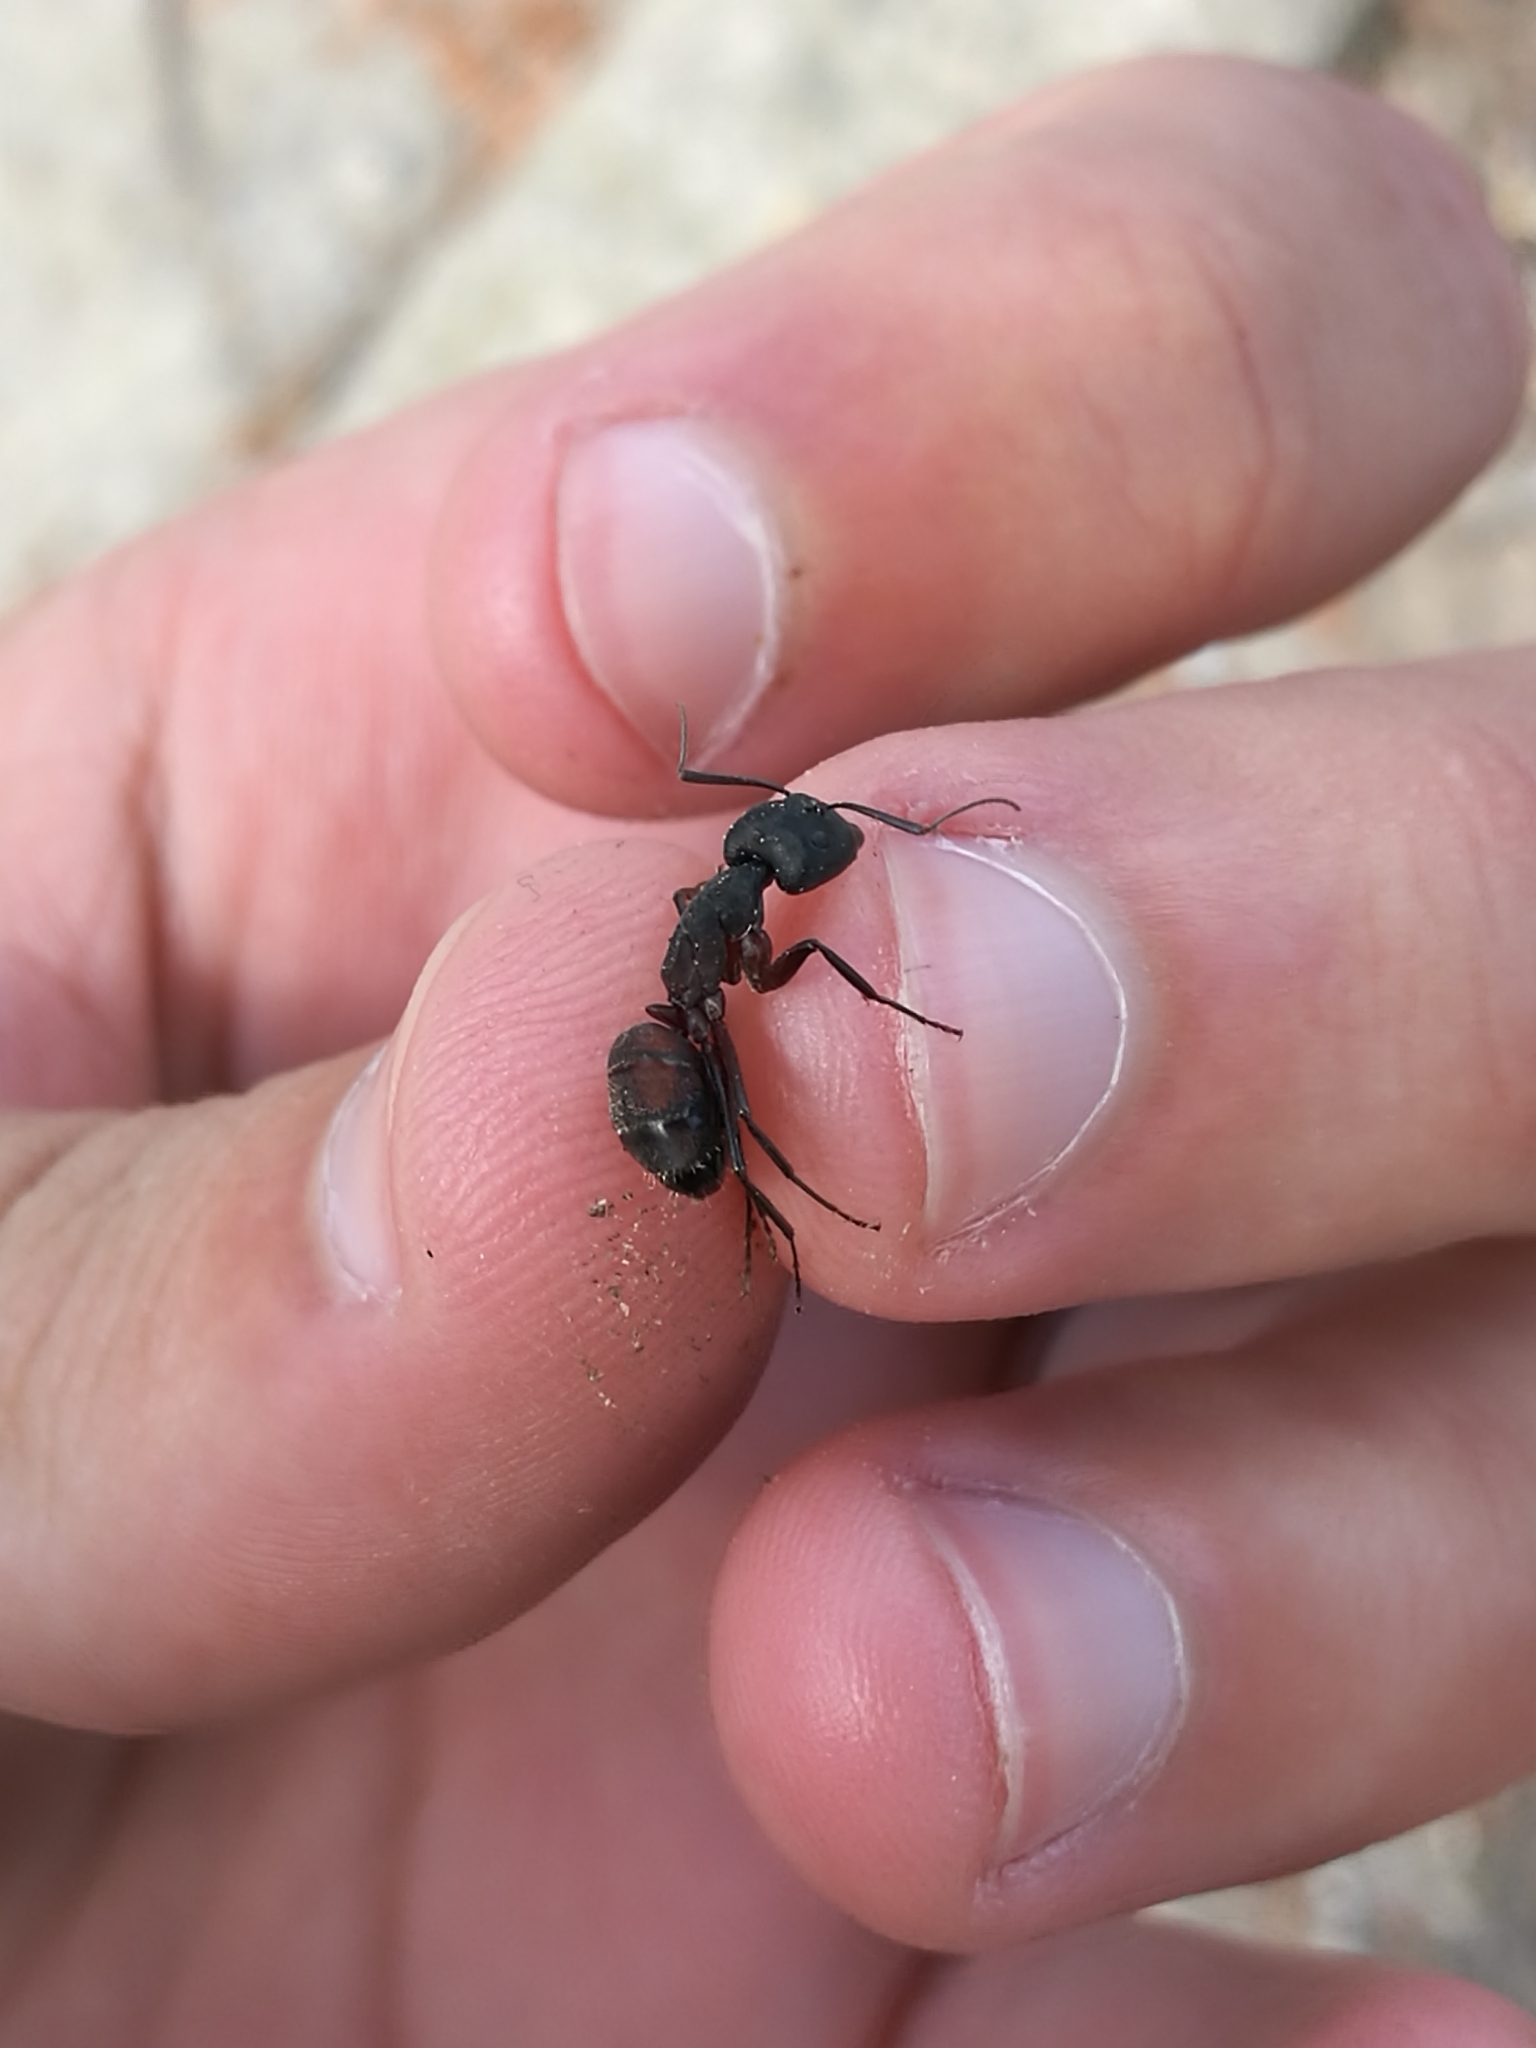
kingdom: Animalia
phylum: Arthropoda
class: Insecta
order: Hymenoptera
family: Formicidae
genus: Camponotus
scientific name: Camponotus cruentatus
